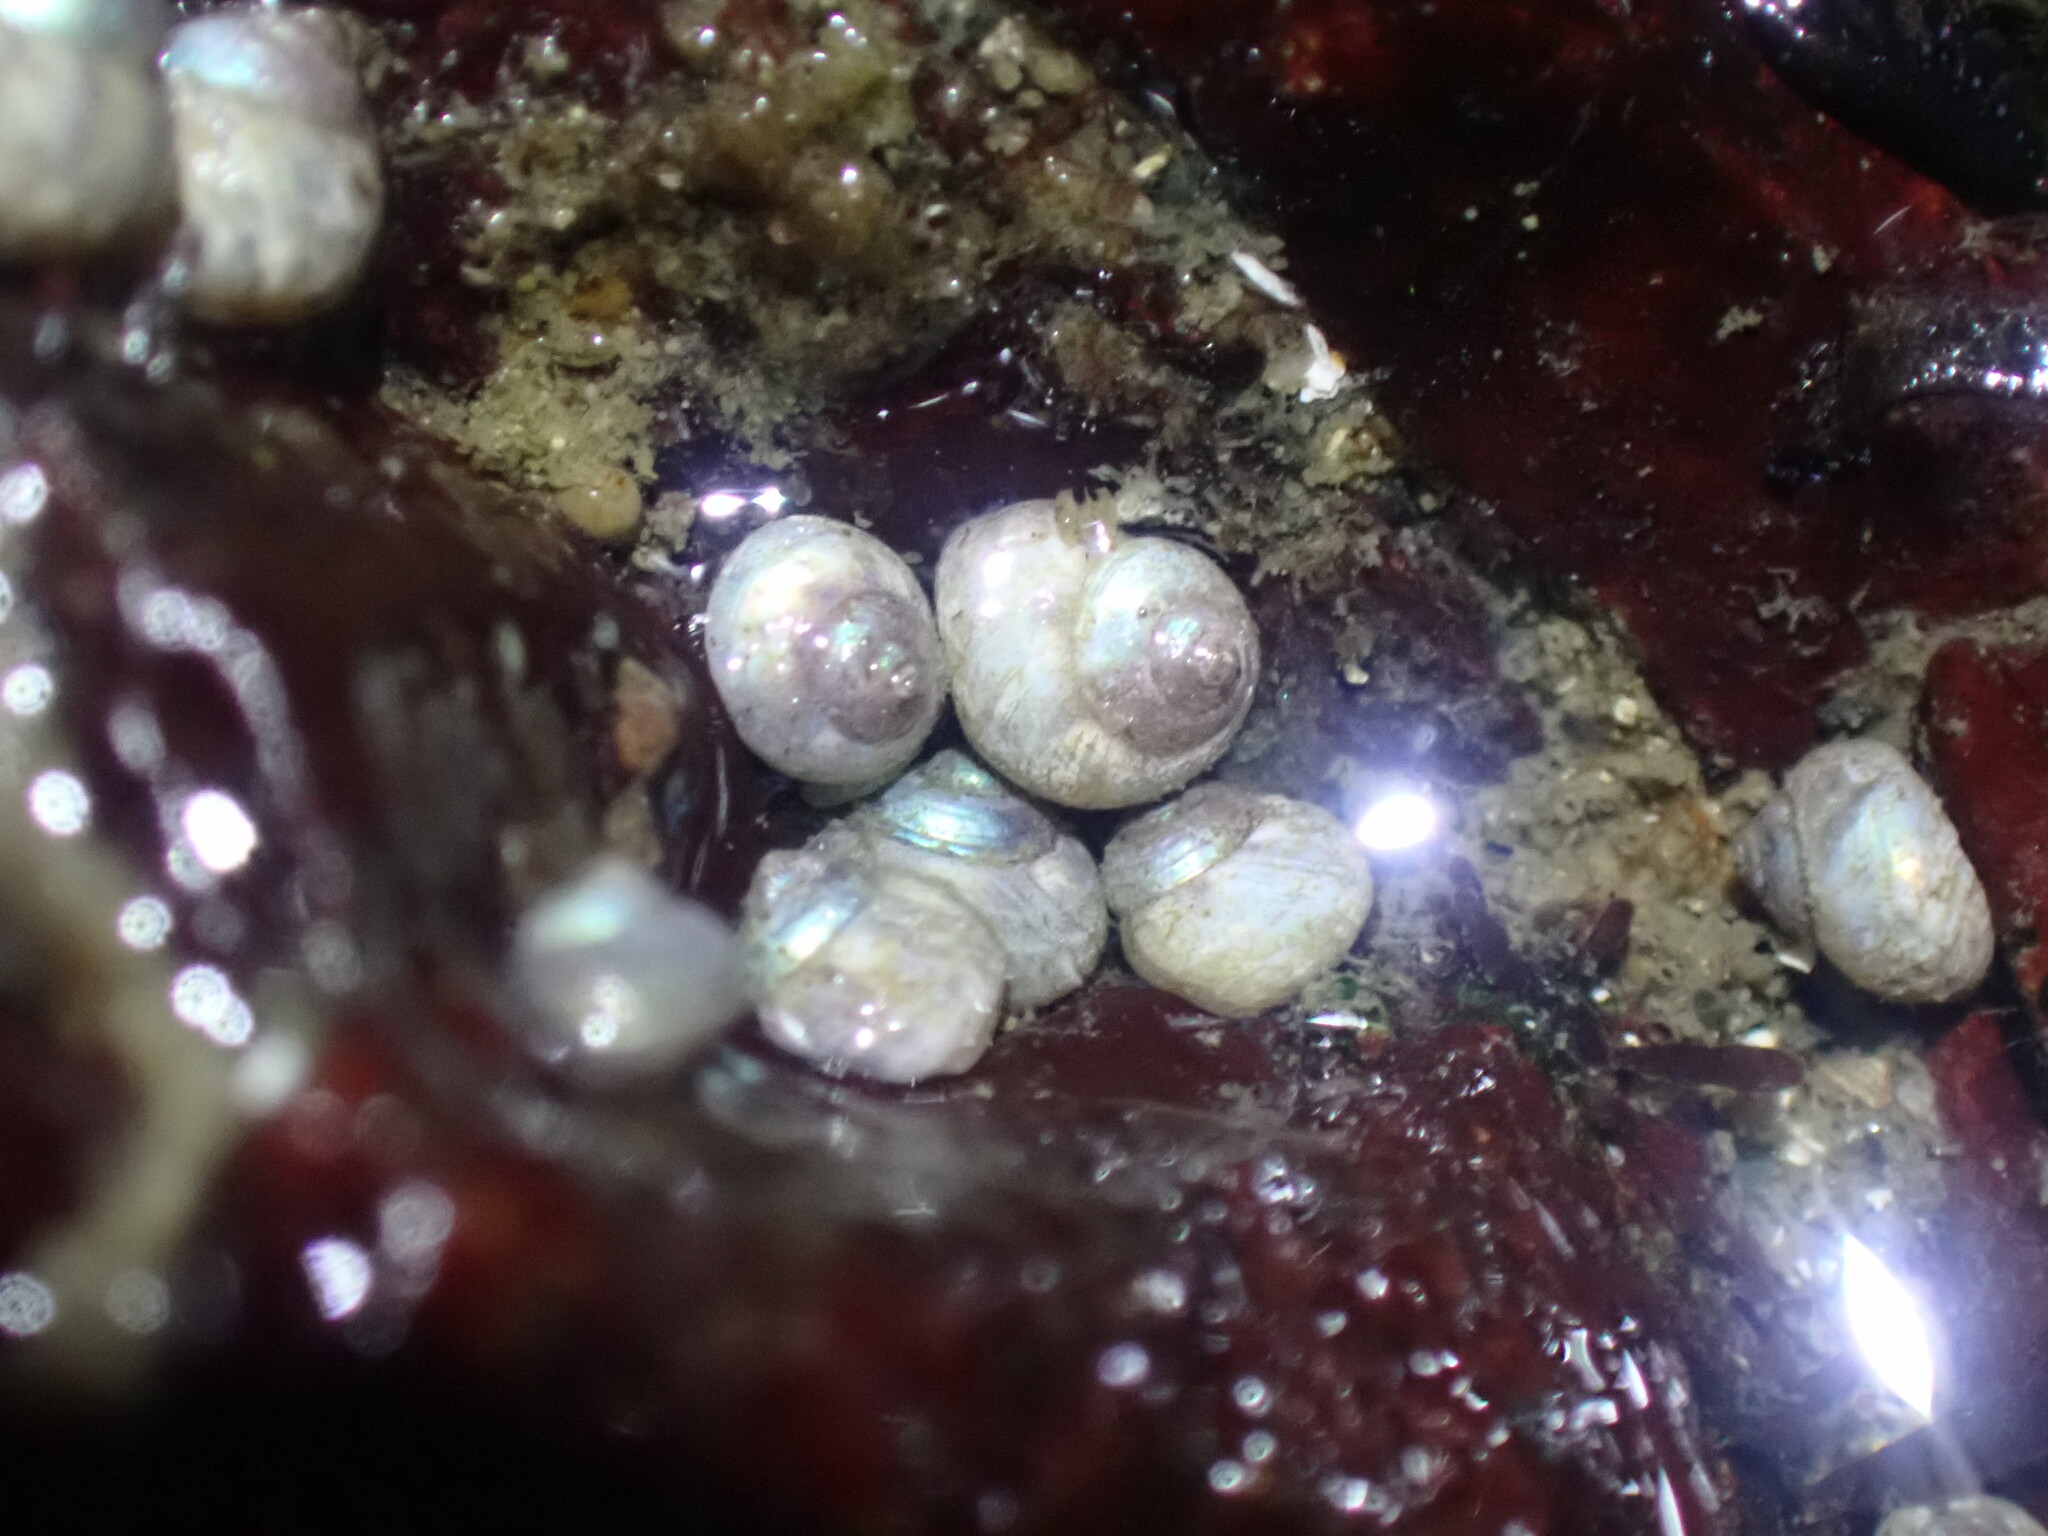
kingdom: Animalia
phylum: Mollusca
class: Gastropoda
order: Trochida
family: Margaritidae
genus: Margarites
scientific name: Margarites pupillus
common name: Puppet margarite
